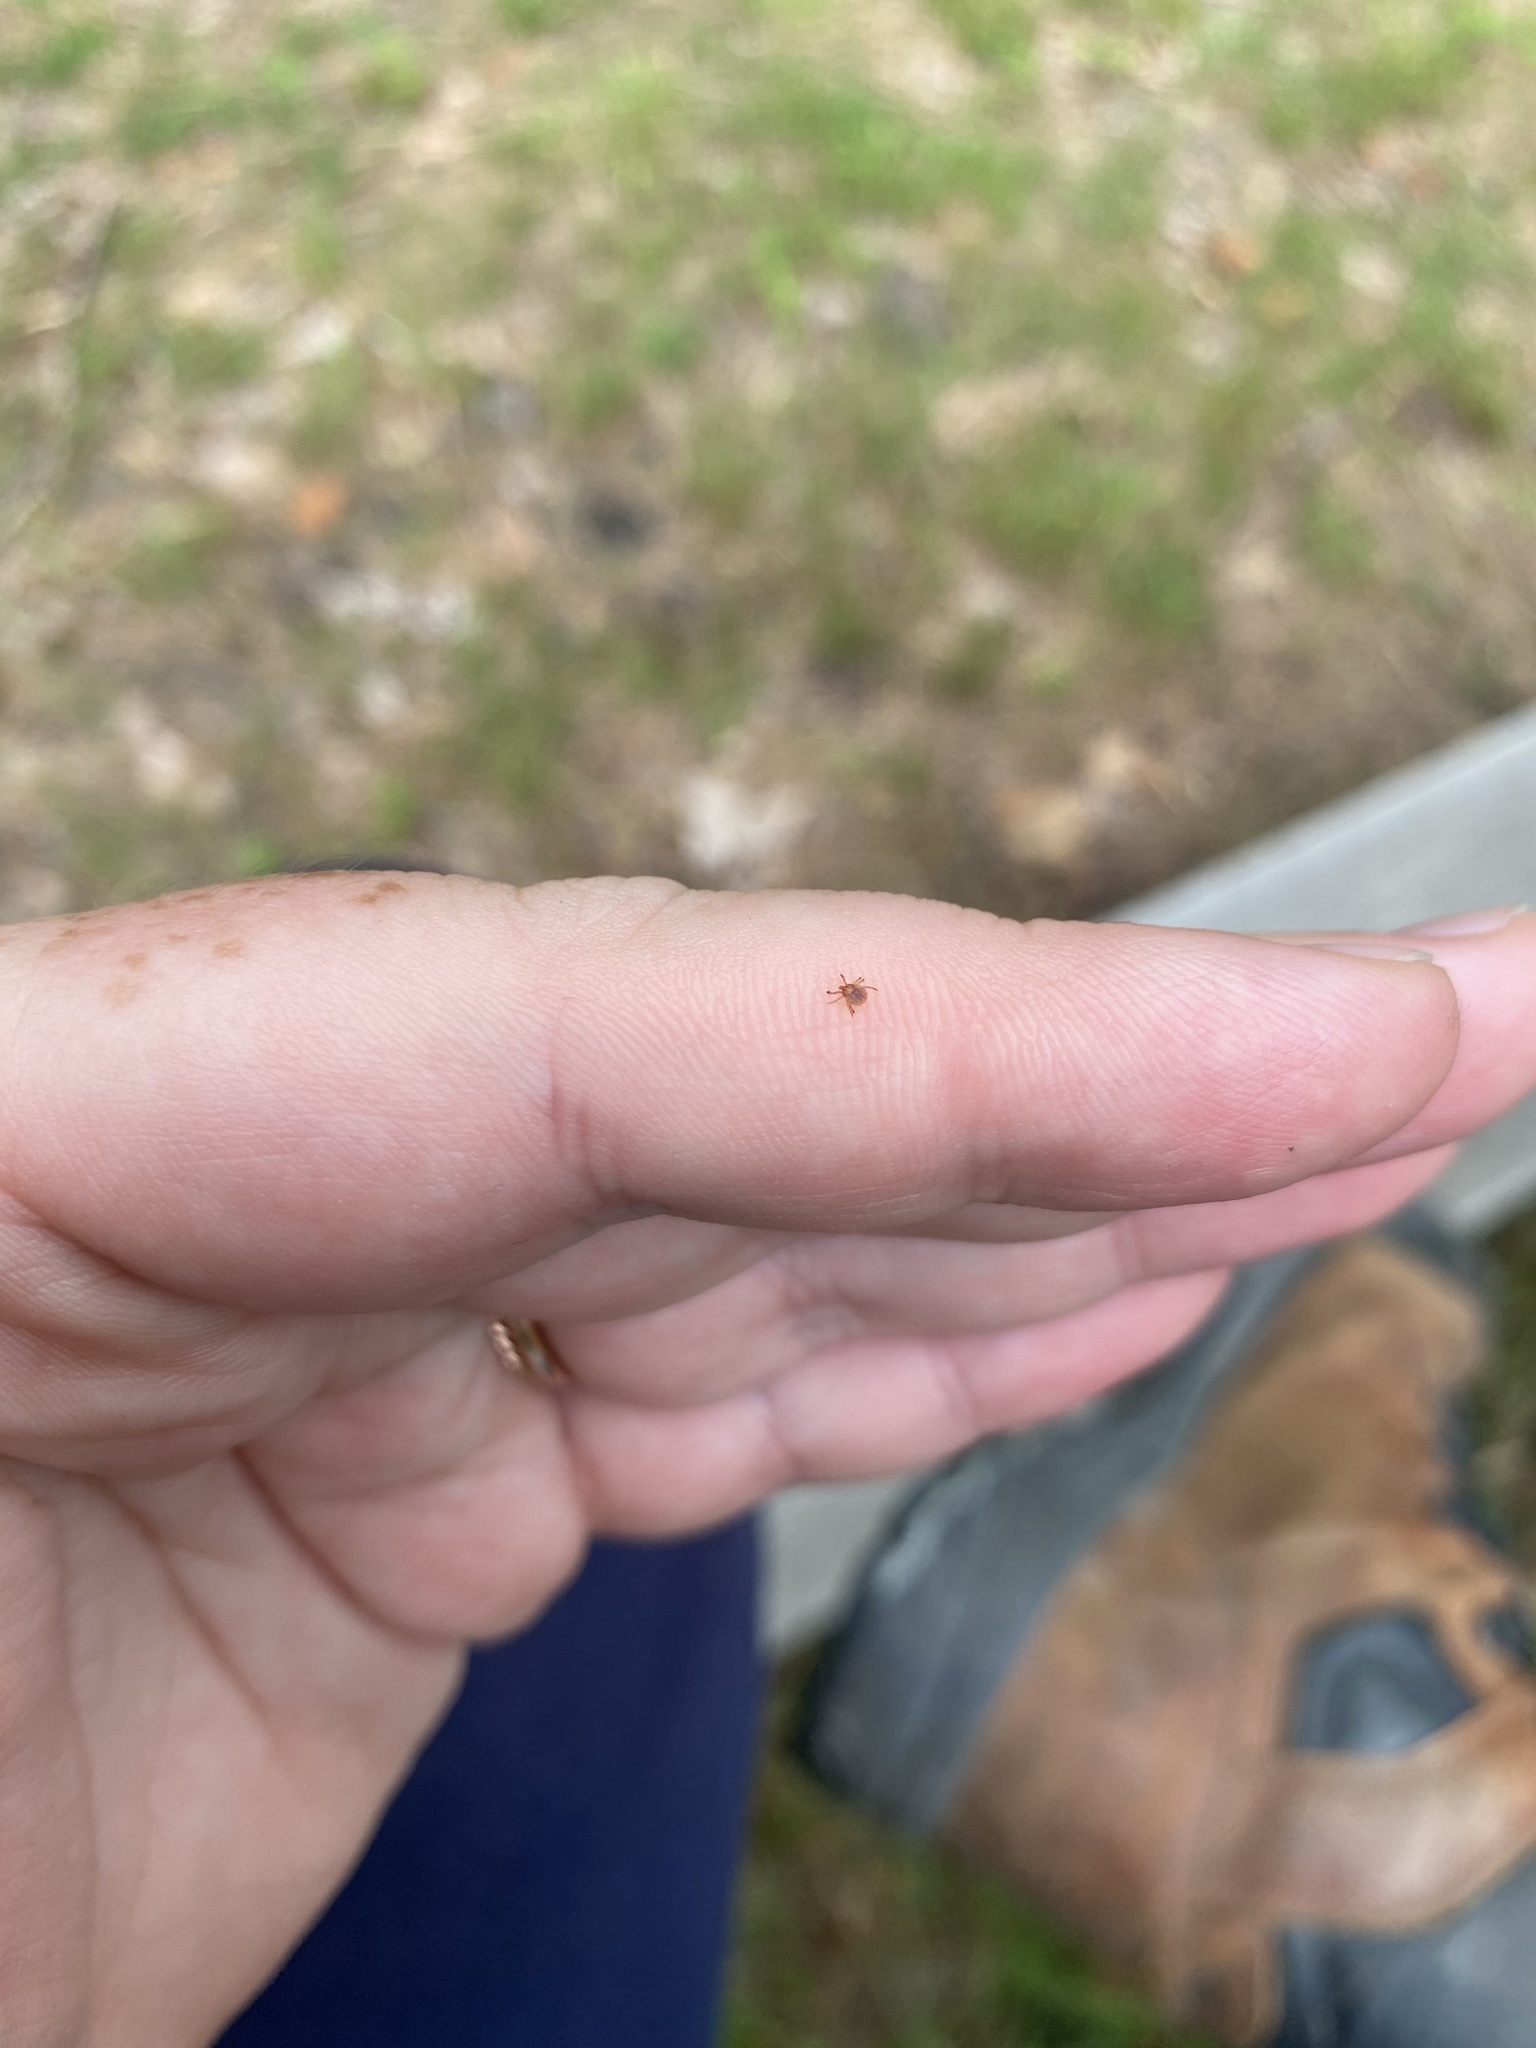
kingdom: Animalia
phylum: Arthropoda
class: Arachnida
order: Ixodida
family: Ixodidae
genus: Amblyomma
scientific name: Amblyomma americanum
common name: Lone star tick
